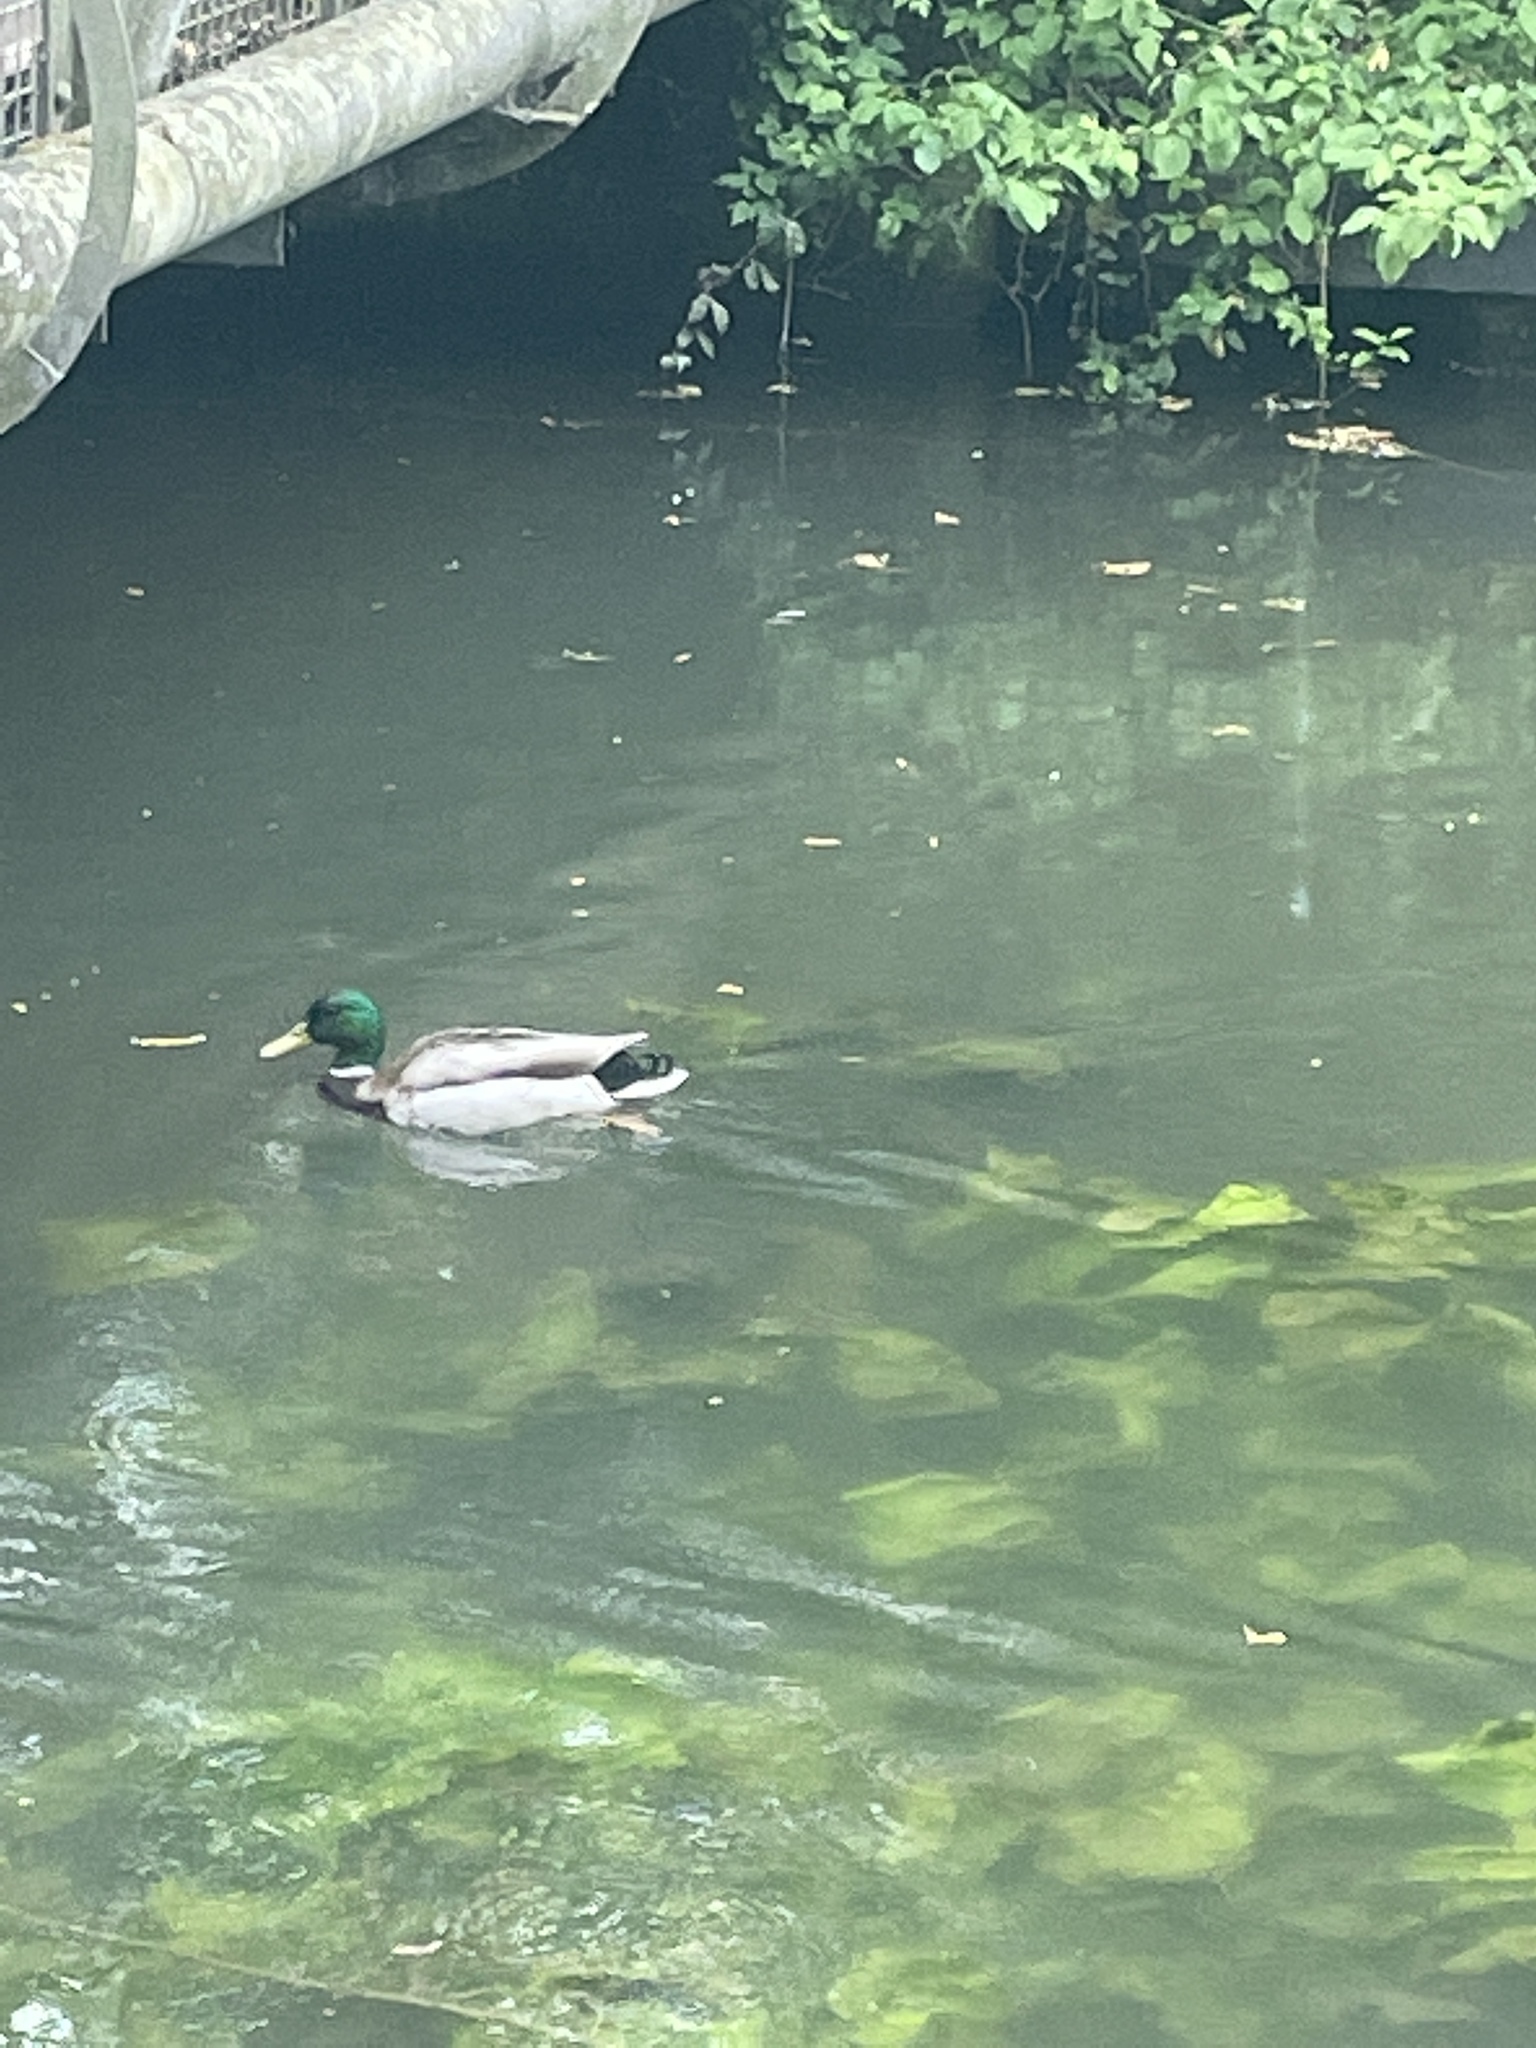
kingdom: Animalia
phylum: Chordata
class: Aves
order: Anseriformes
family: Anatidae
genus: Anas
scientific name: Anas platyrhynchos
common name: Mallard
